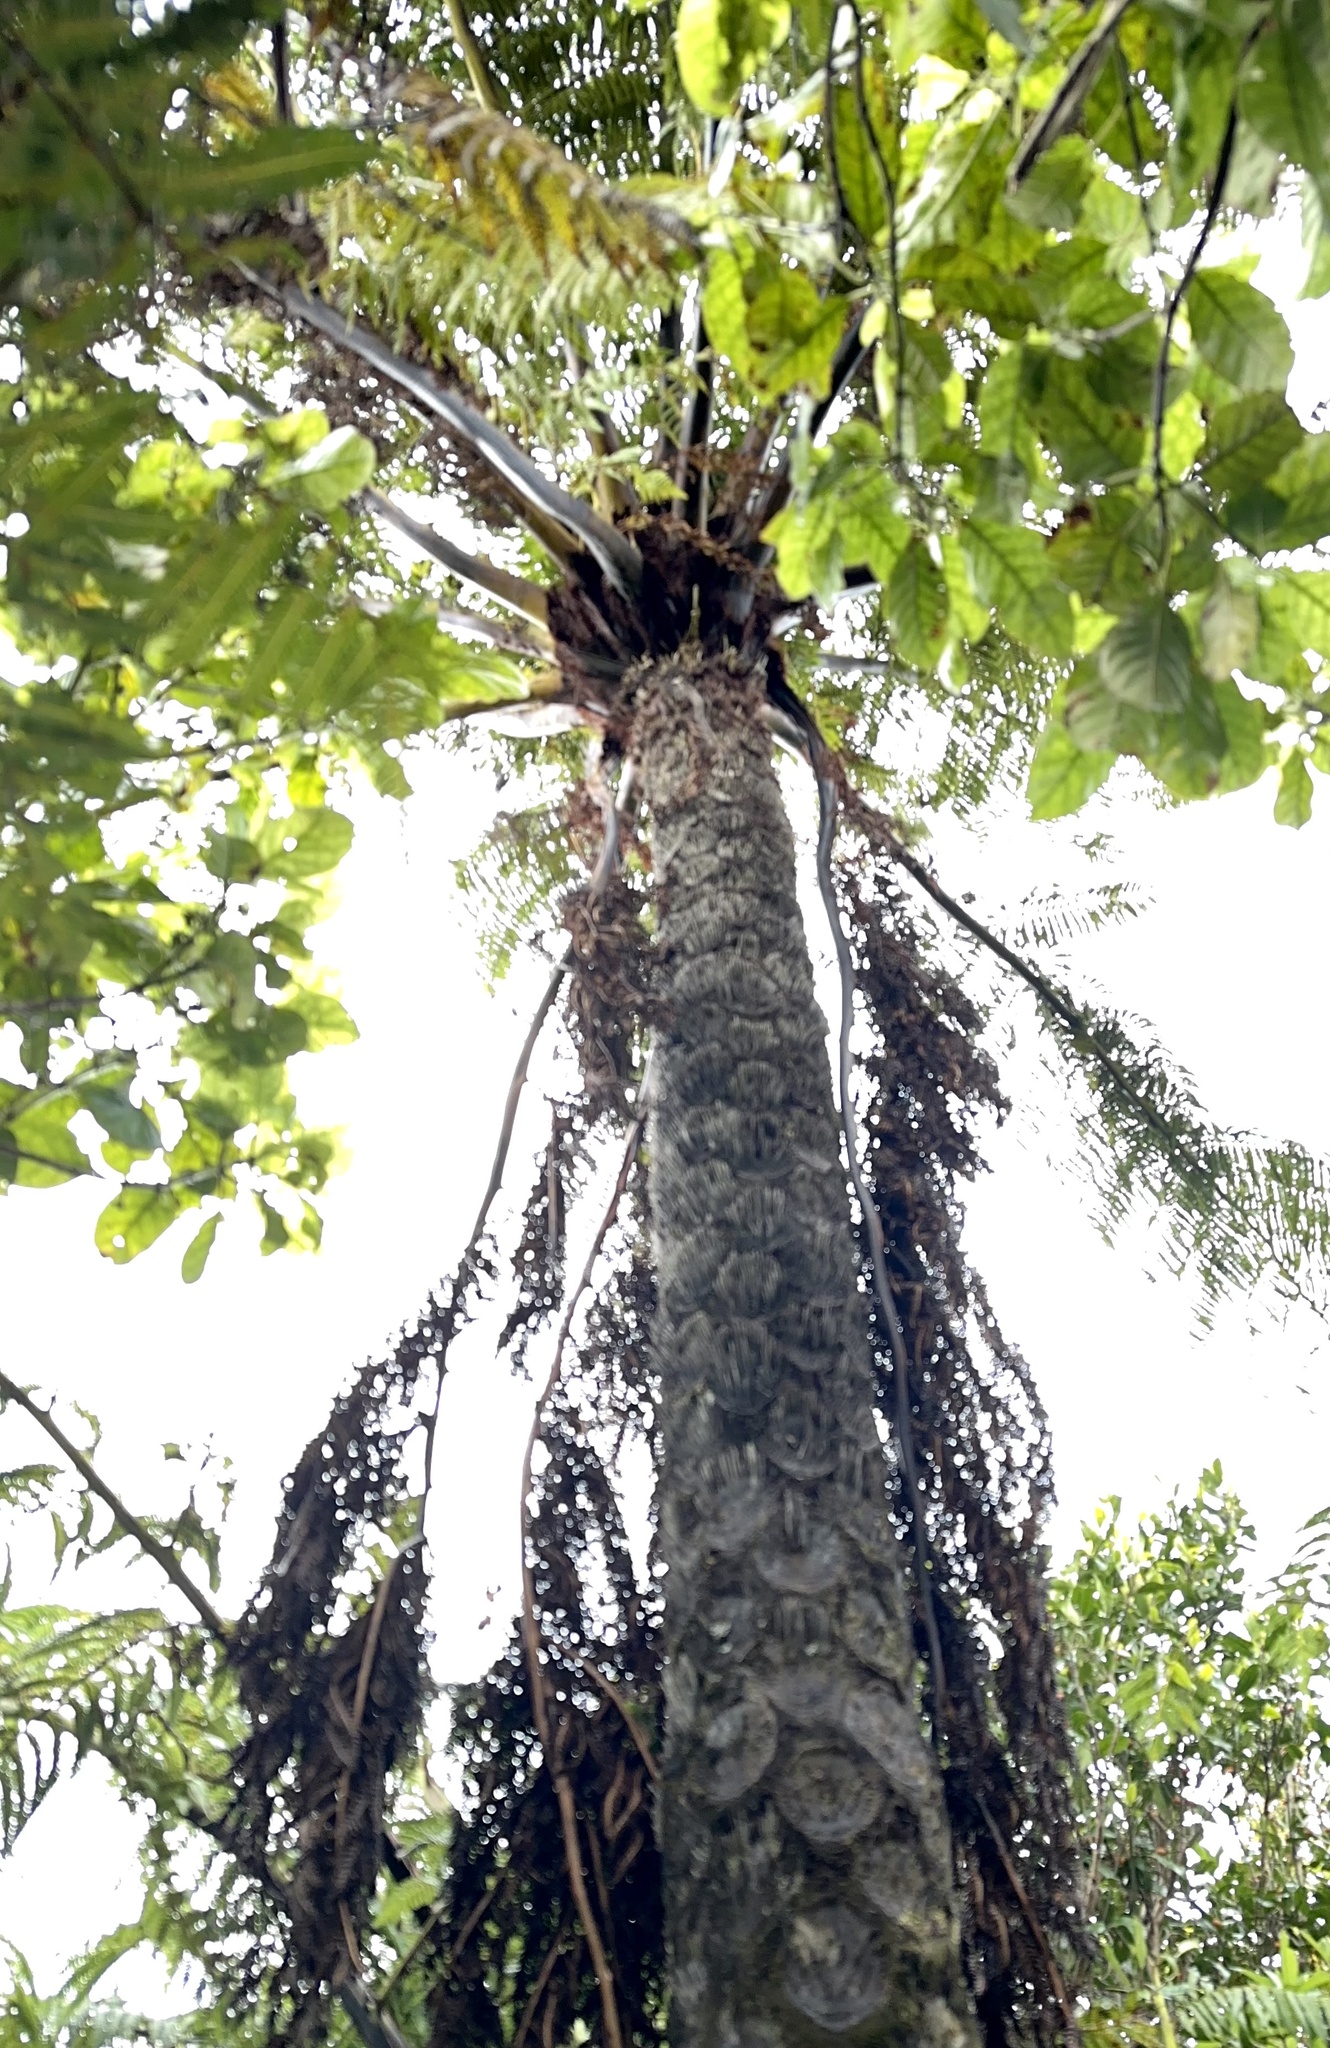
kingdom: Plantae
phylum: Tracheophyta
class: Polypodiopsida
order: Cyatheales
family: Cyatheaceae
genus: Sphaeropteris
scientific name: Sphaeropteris medullaris
